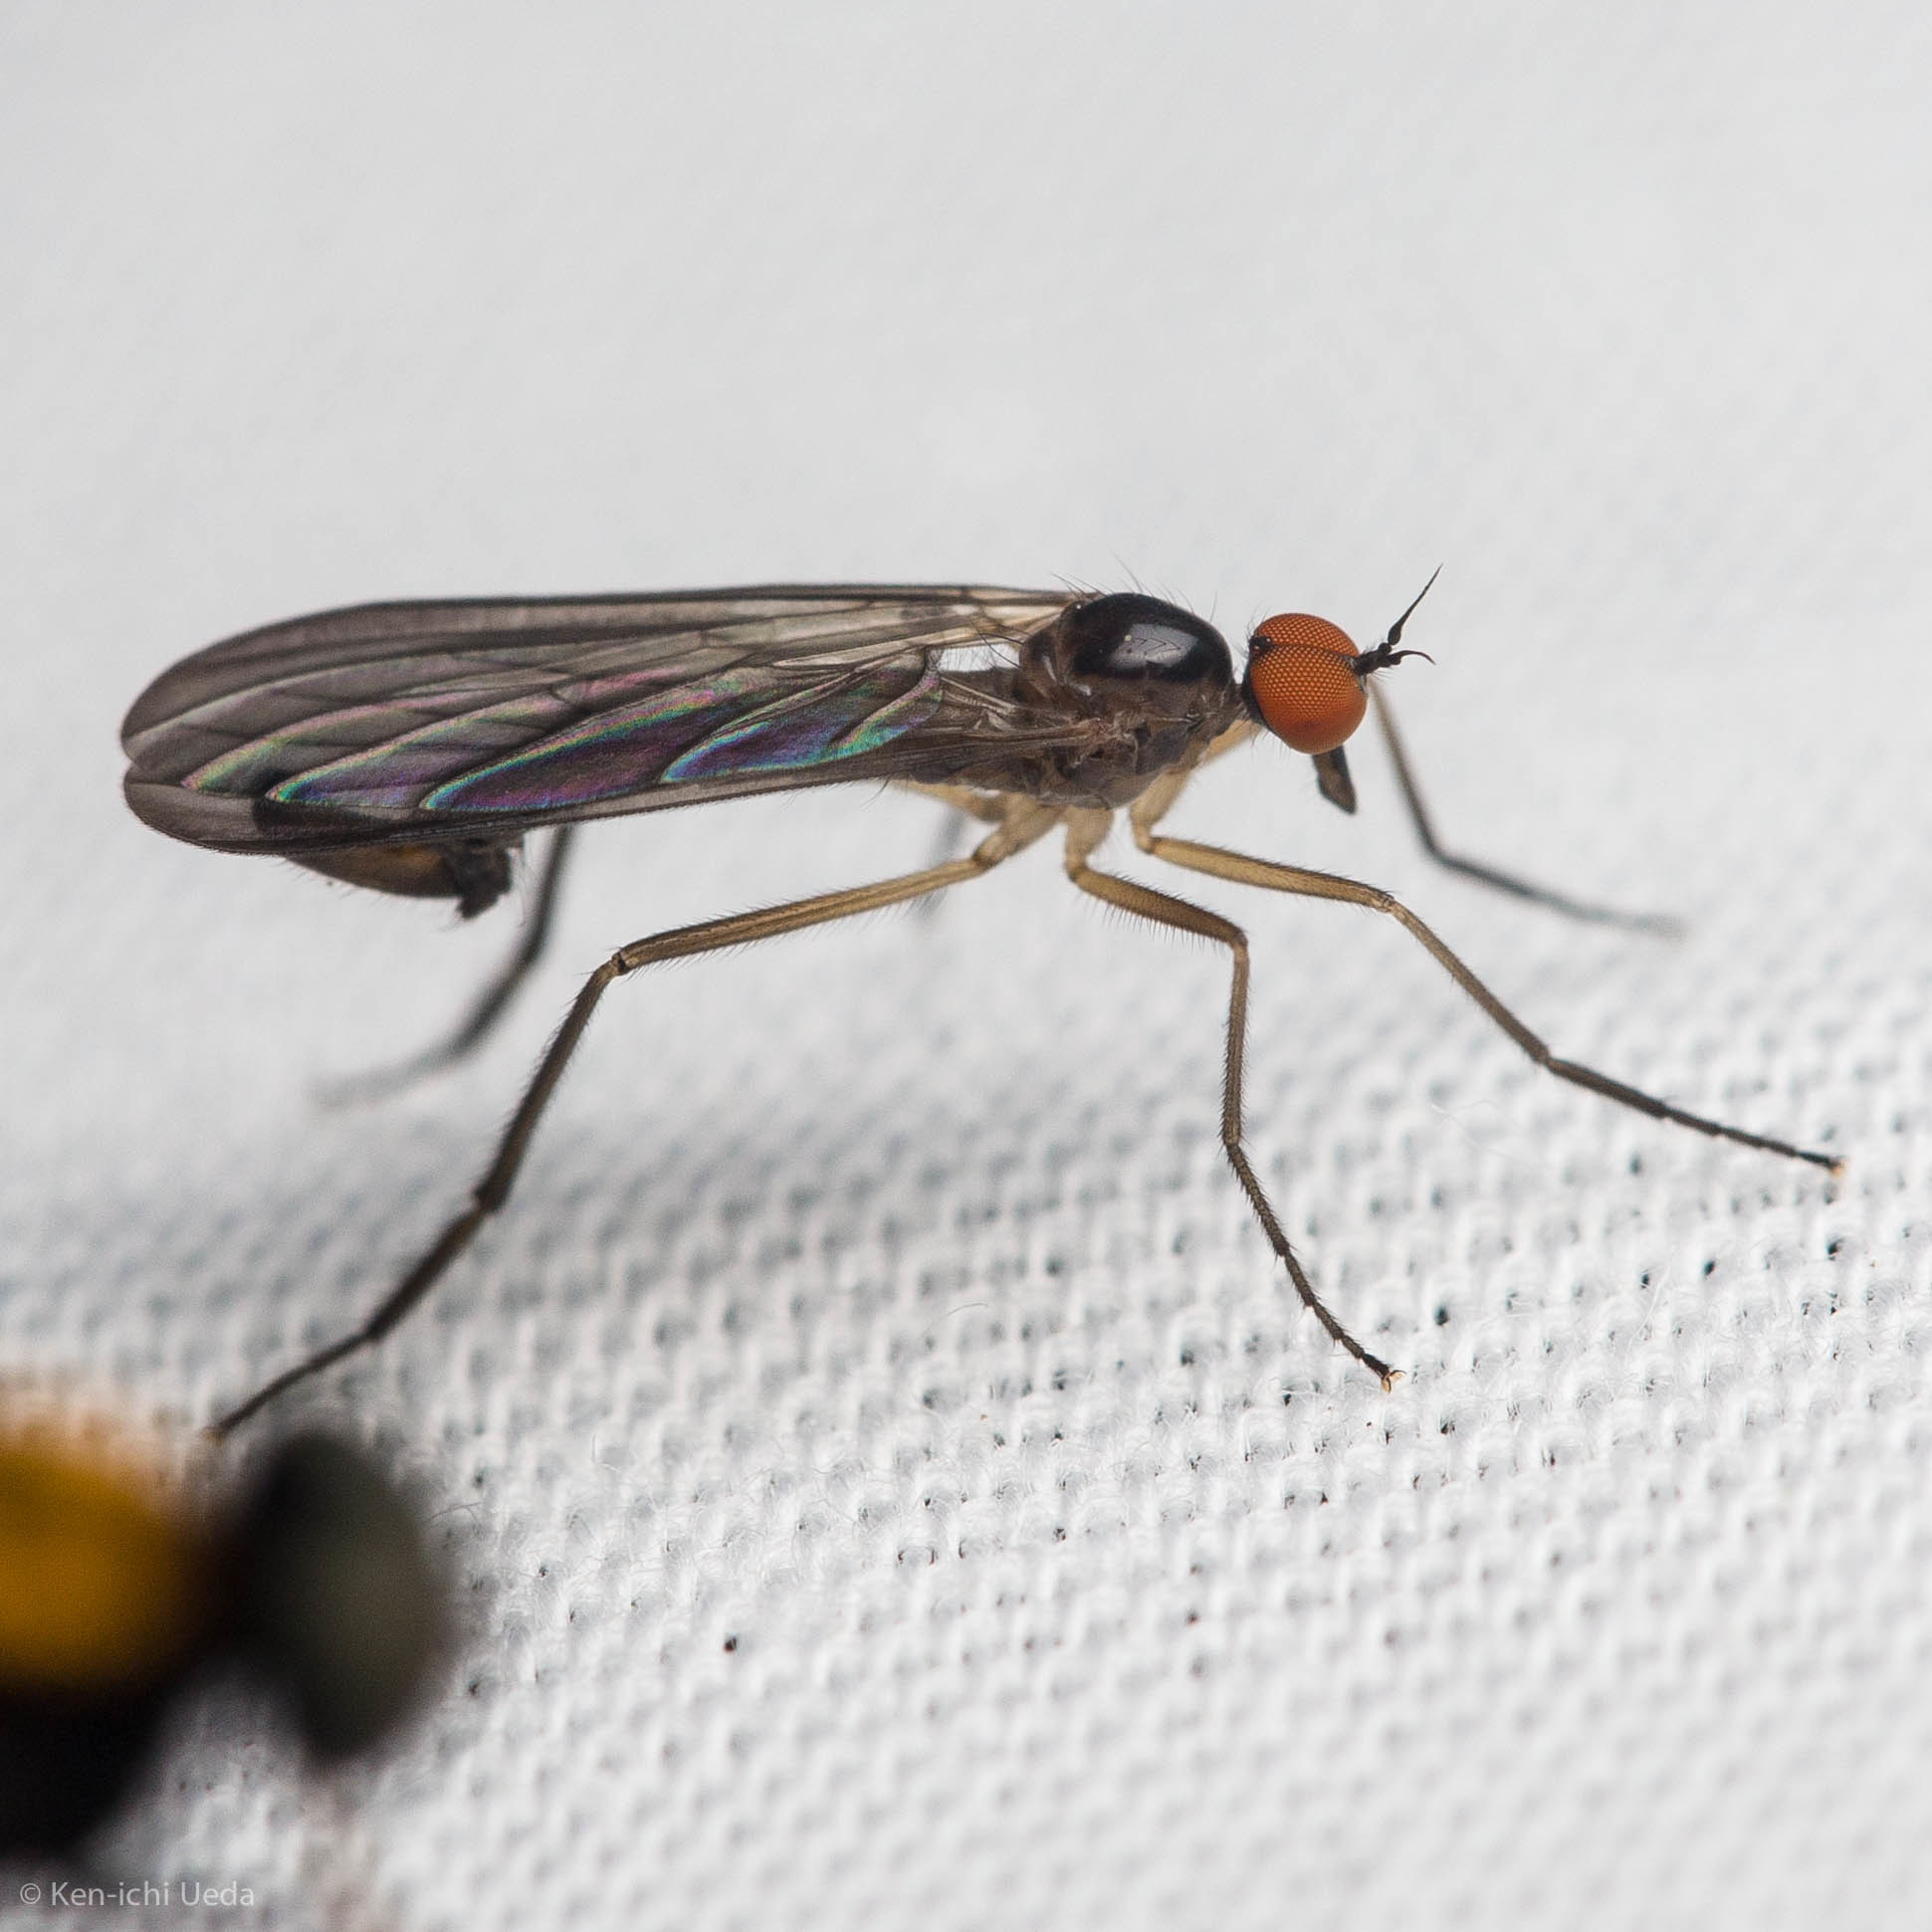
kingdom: Animalia
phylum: Arthropoda
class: Insecta
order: Diptera
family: Empididae
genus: Rhamphomyia
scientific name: Rhamphomyia longicauda
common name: Long-tailed dance fly
